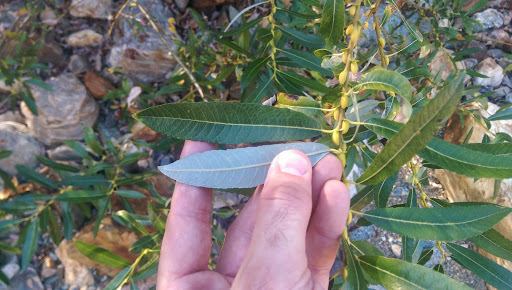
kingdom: Plantae
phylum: Tracheophyta
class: Magnoliopsida
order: Malpighiales
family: Salicaceae
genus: Salix
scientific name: Salix lasiolepis
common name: Arroyo willow
